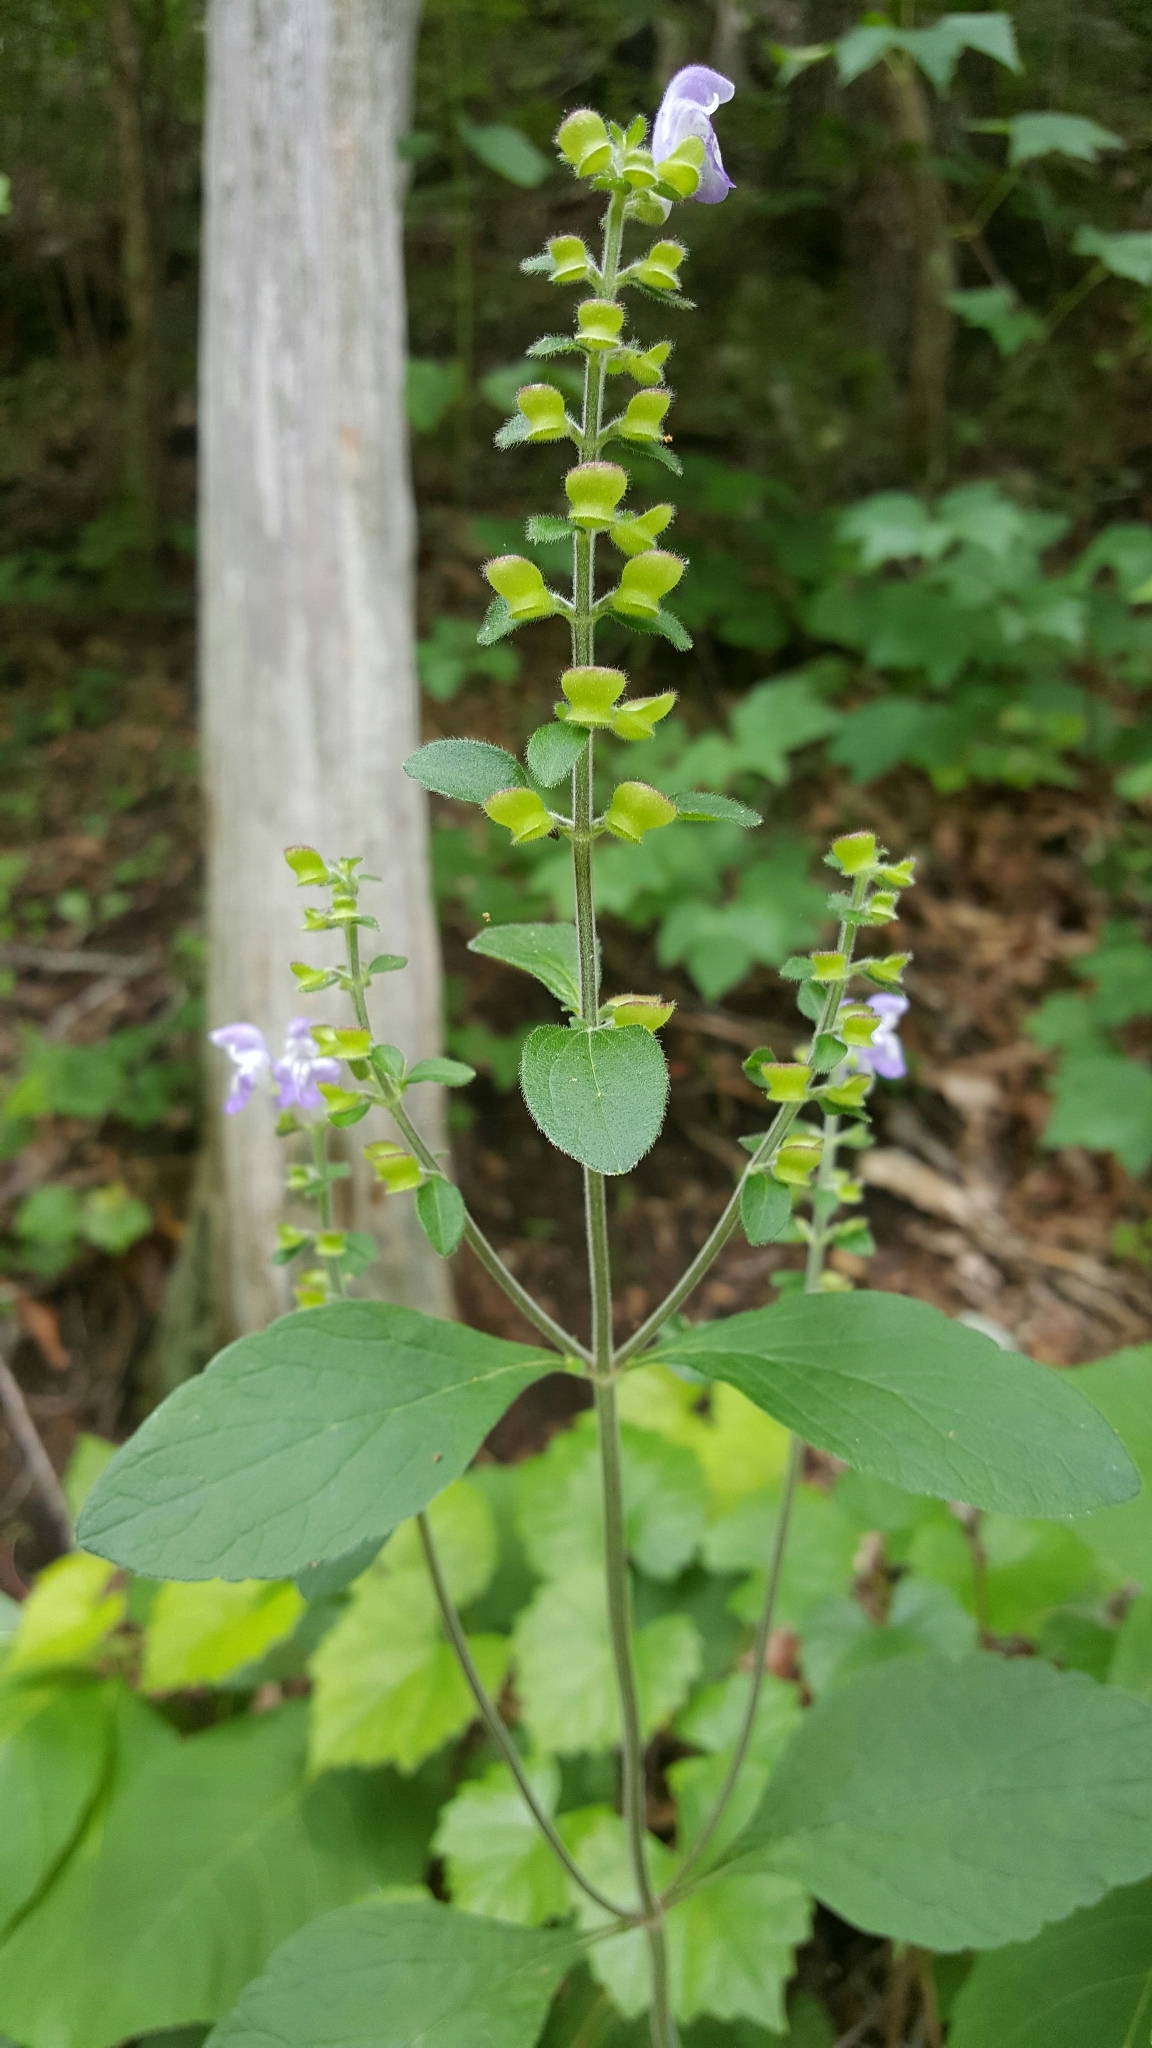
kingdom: Plantae
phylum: Tracheophyta
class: Magnoliopsida
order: Lamiales
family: Lamiaceae
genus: Scutellaria
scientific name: Scutellaria elliptica
